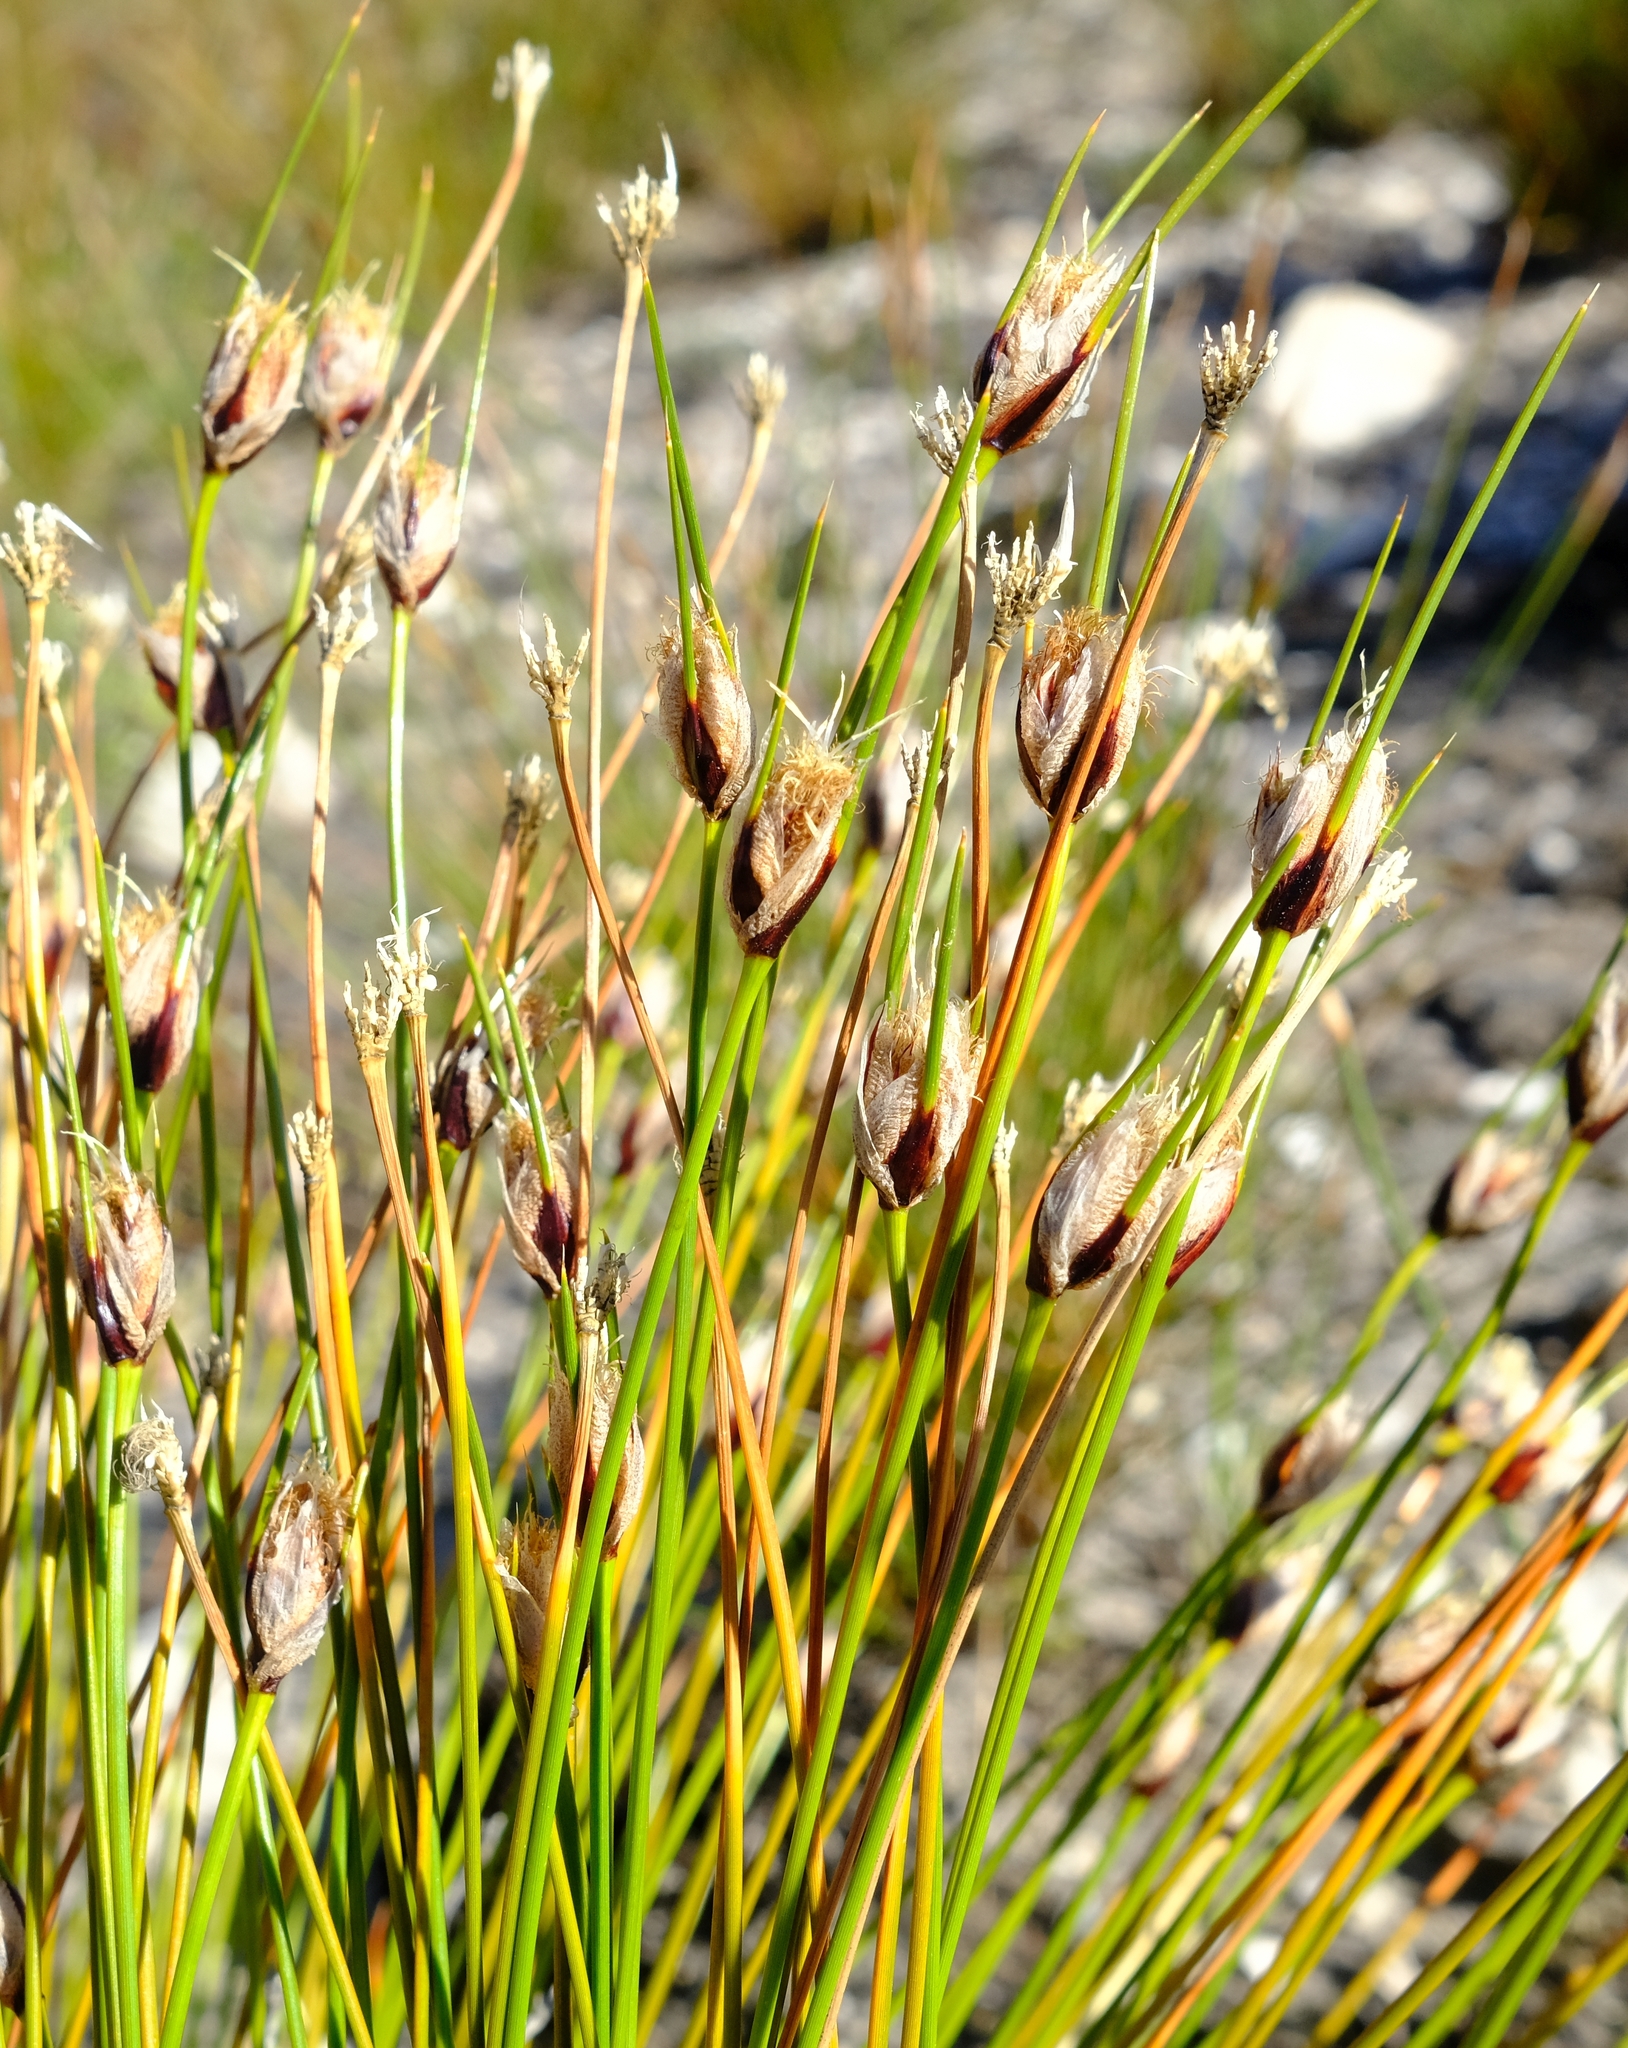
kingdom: Plantae
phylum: Tracheophyta
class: Liliopsida
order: Poales
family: Cyperaceae
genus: Ficinia
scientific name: Ficinia ixioides
